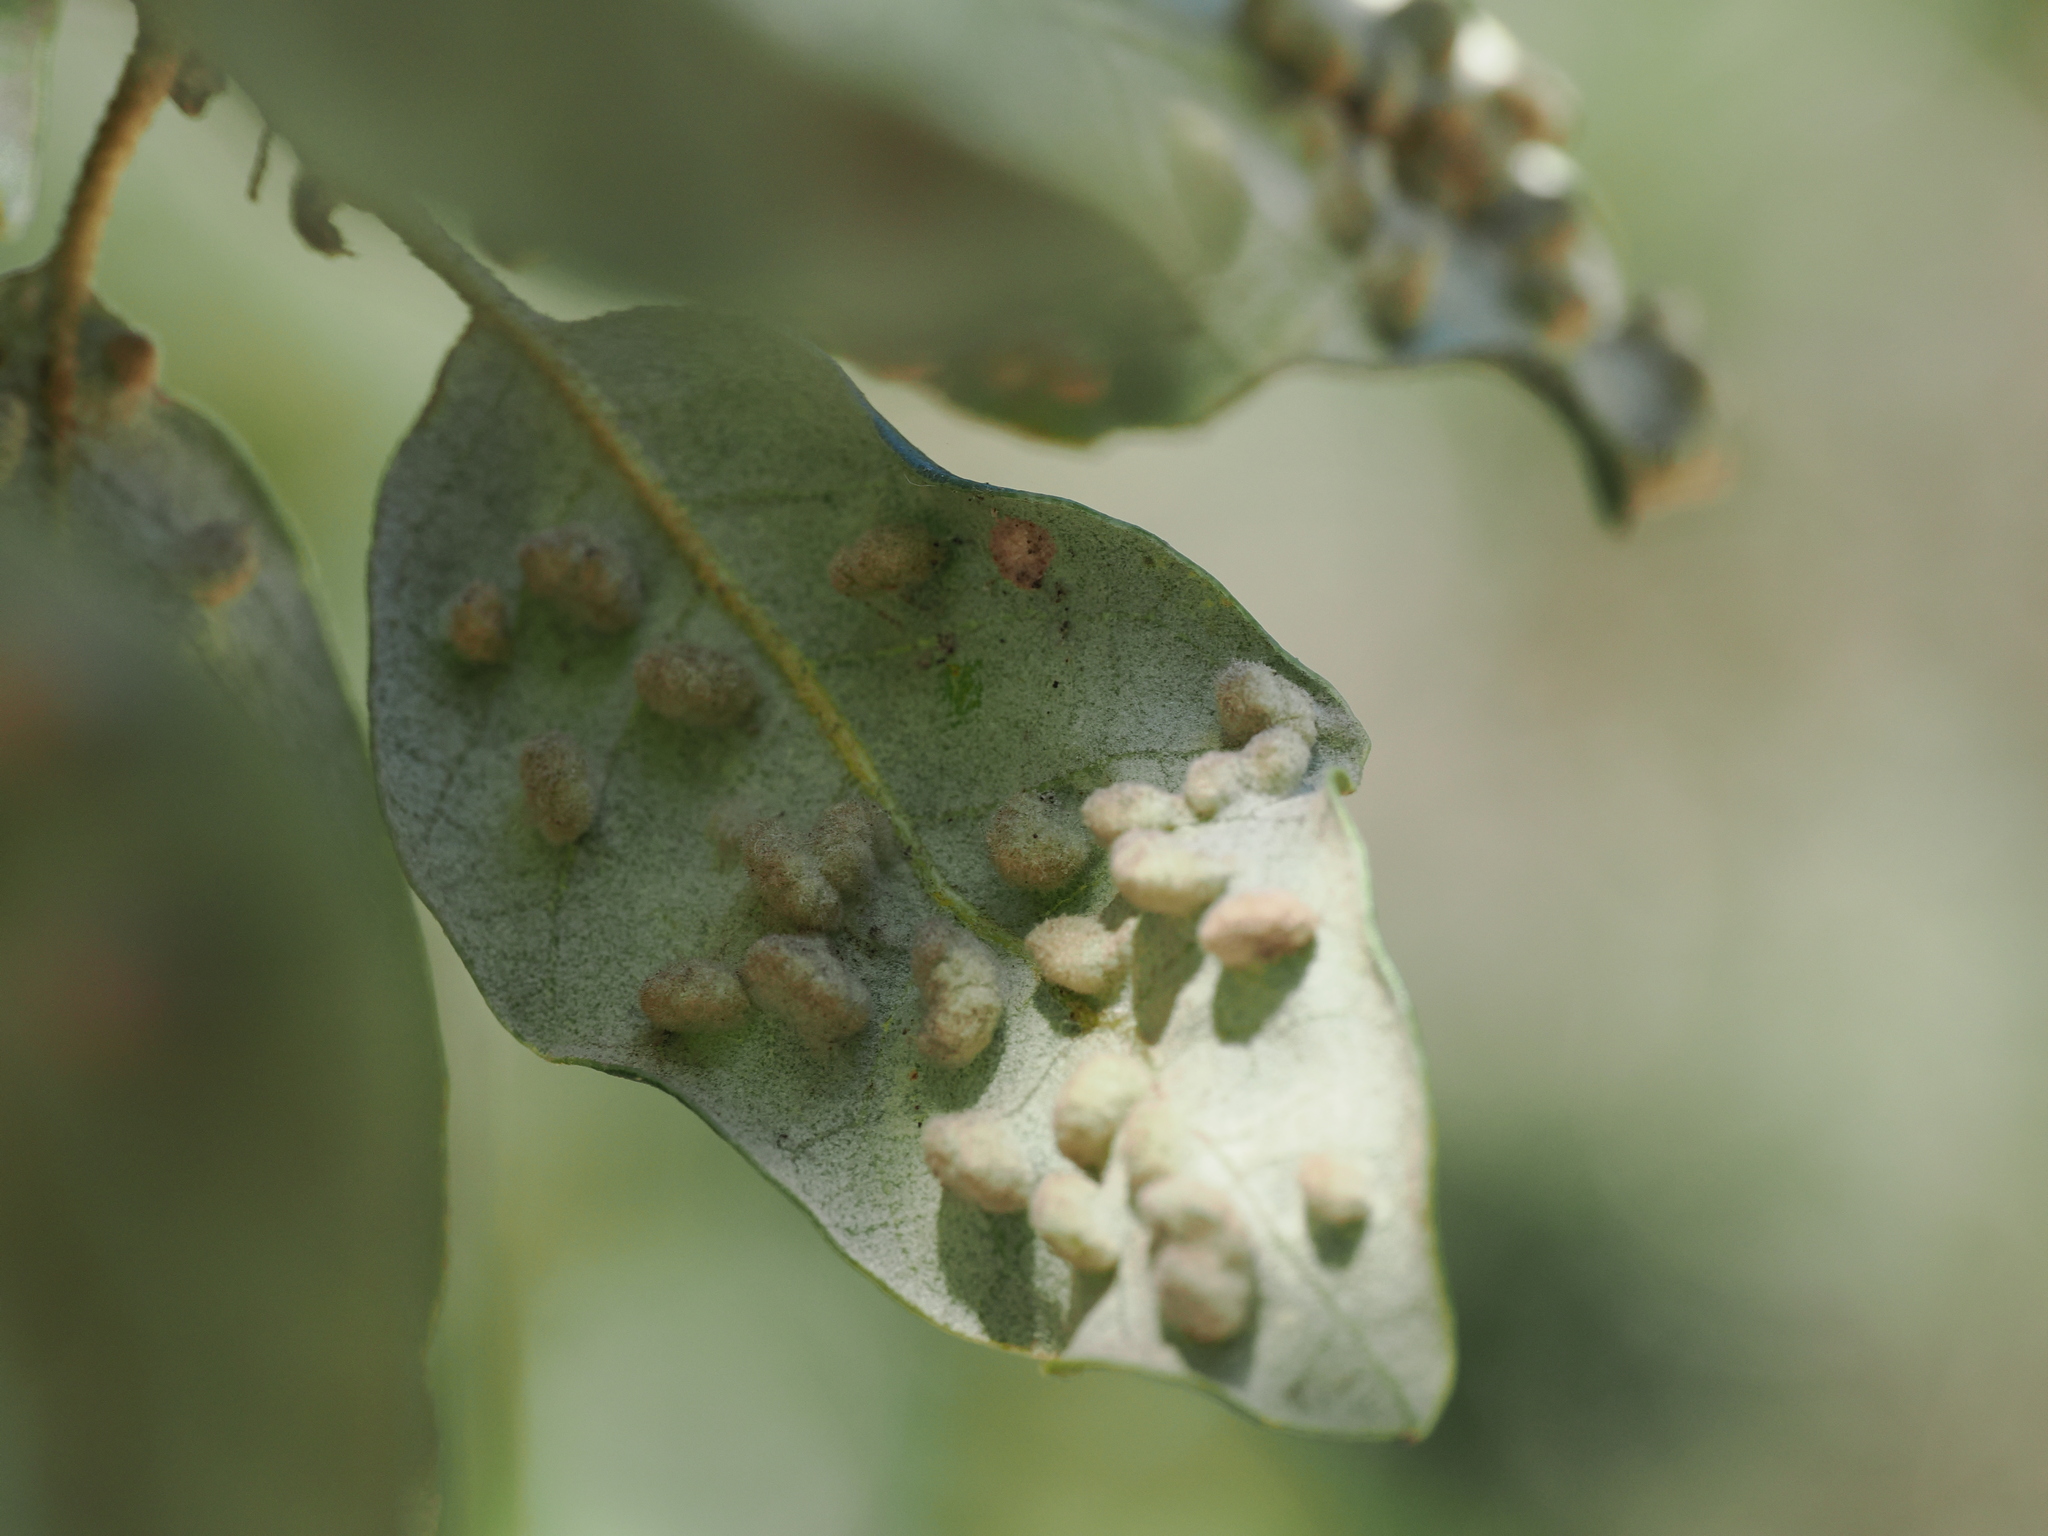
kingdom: Animalia
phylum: Arthropoda
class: Insecta
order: Diptera
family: Cecidomyiidae
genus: Dryomyia
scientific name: Dryomyia lichtensteinii
